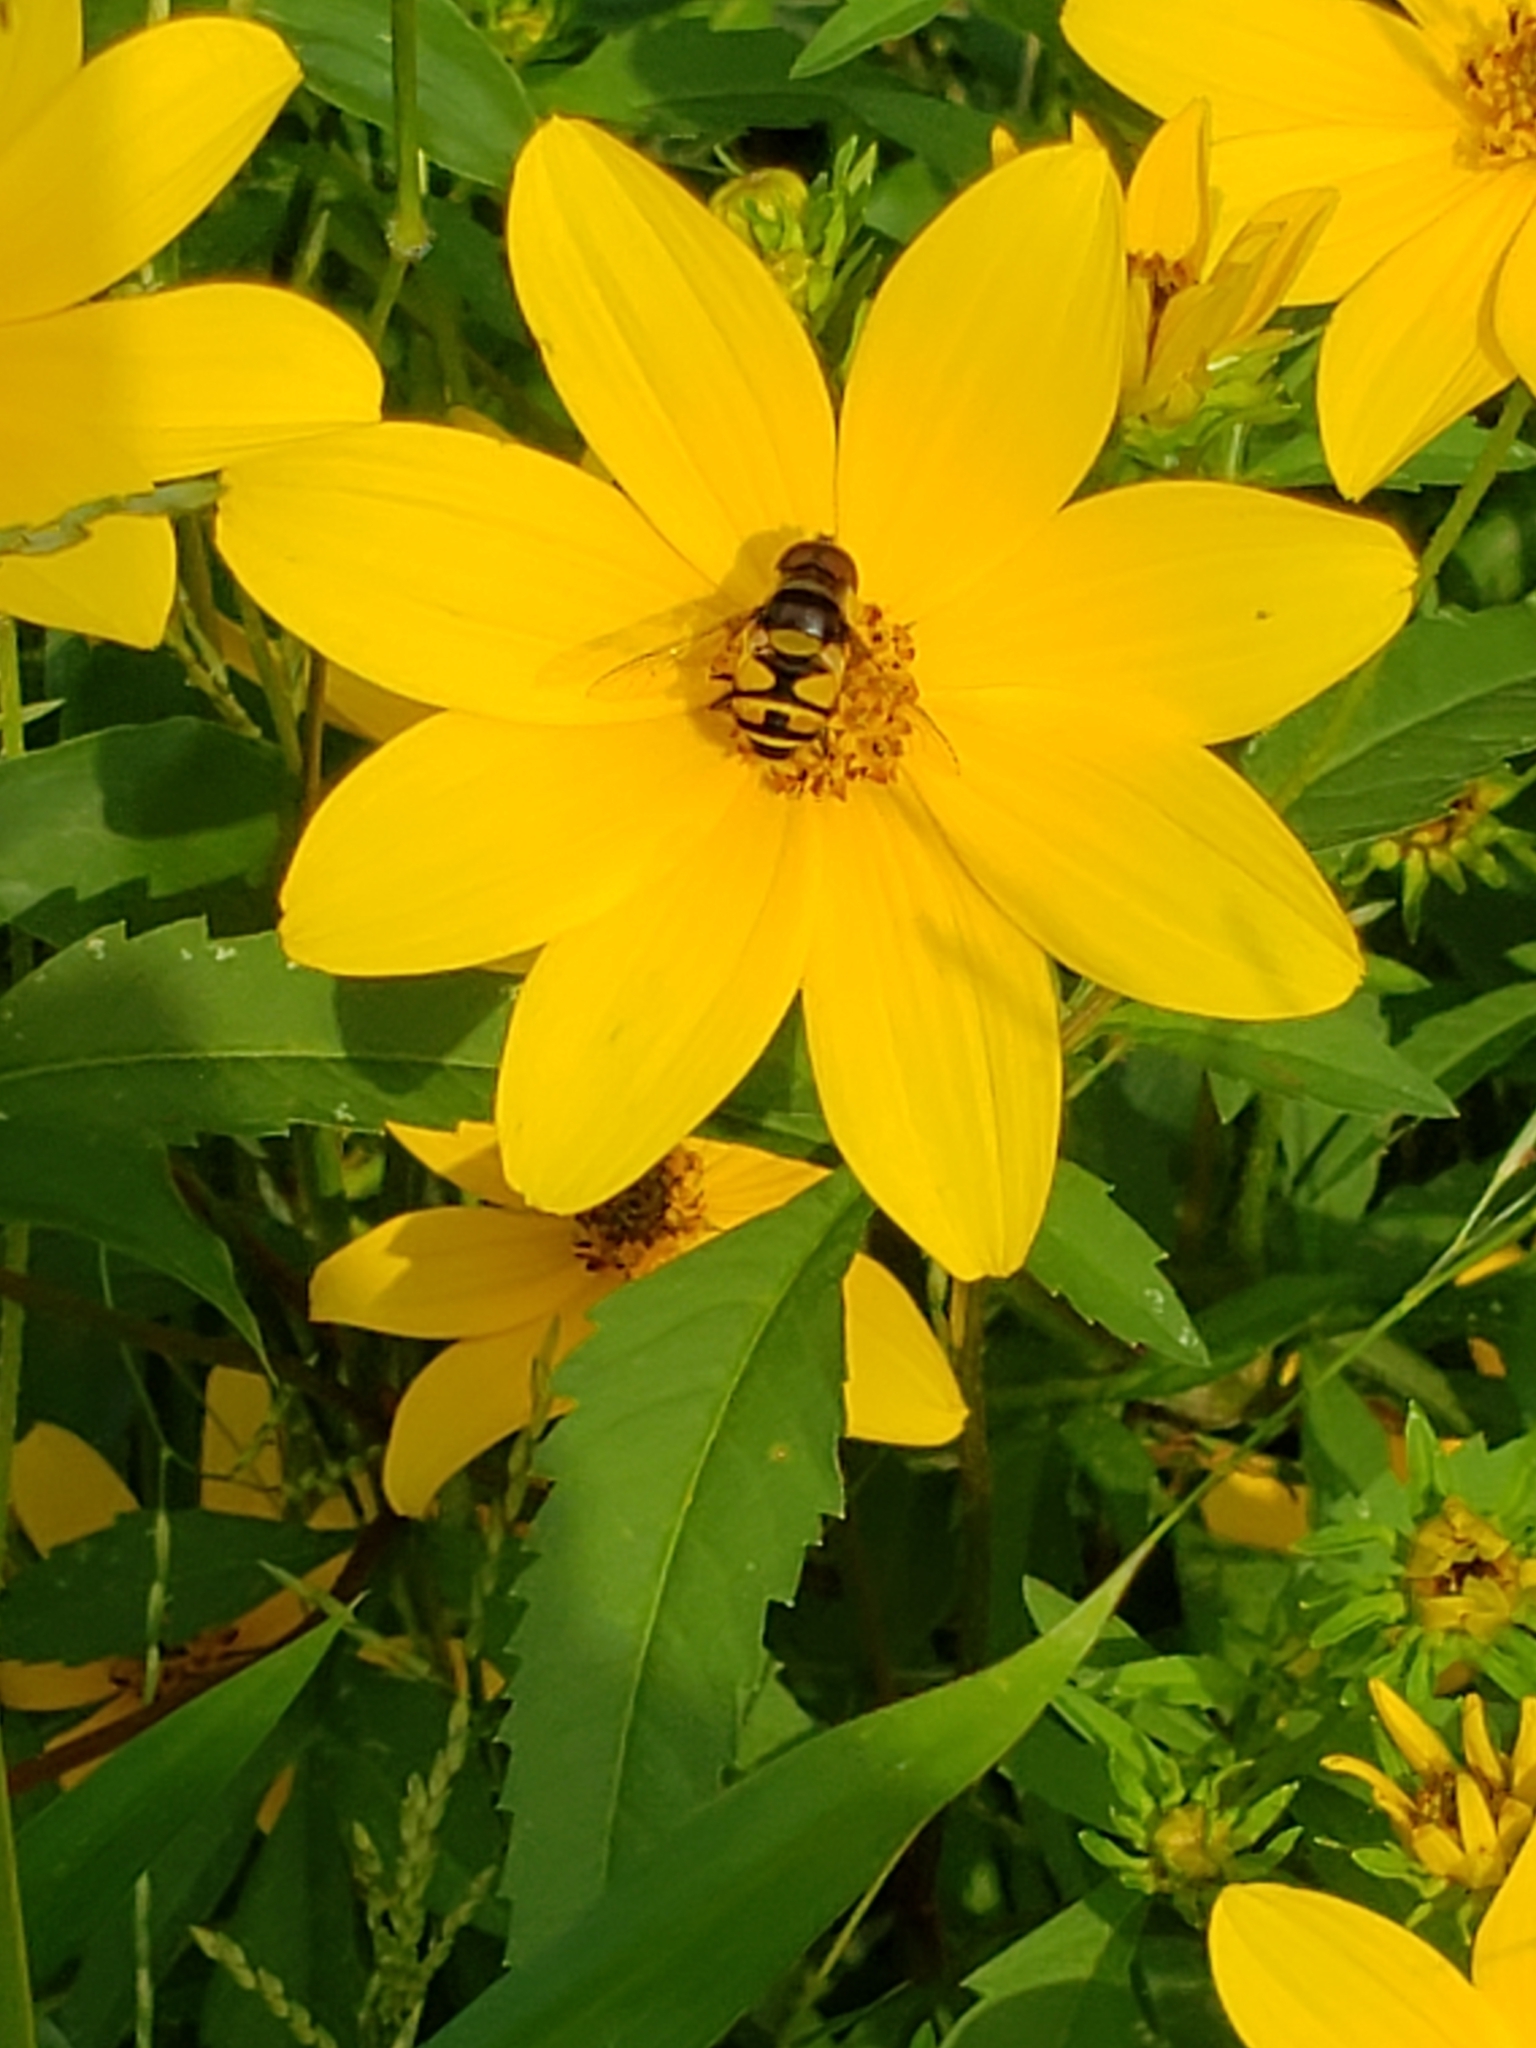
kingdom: Animalia
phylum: Arthropoda
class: Insecta
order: Diptera
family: Syrphidae
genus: Eristalis
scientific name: Eristalis transversa
